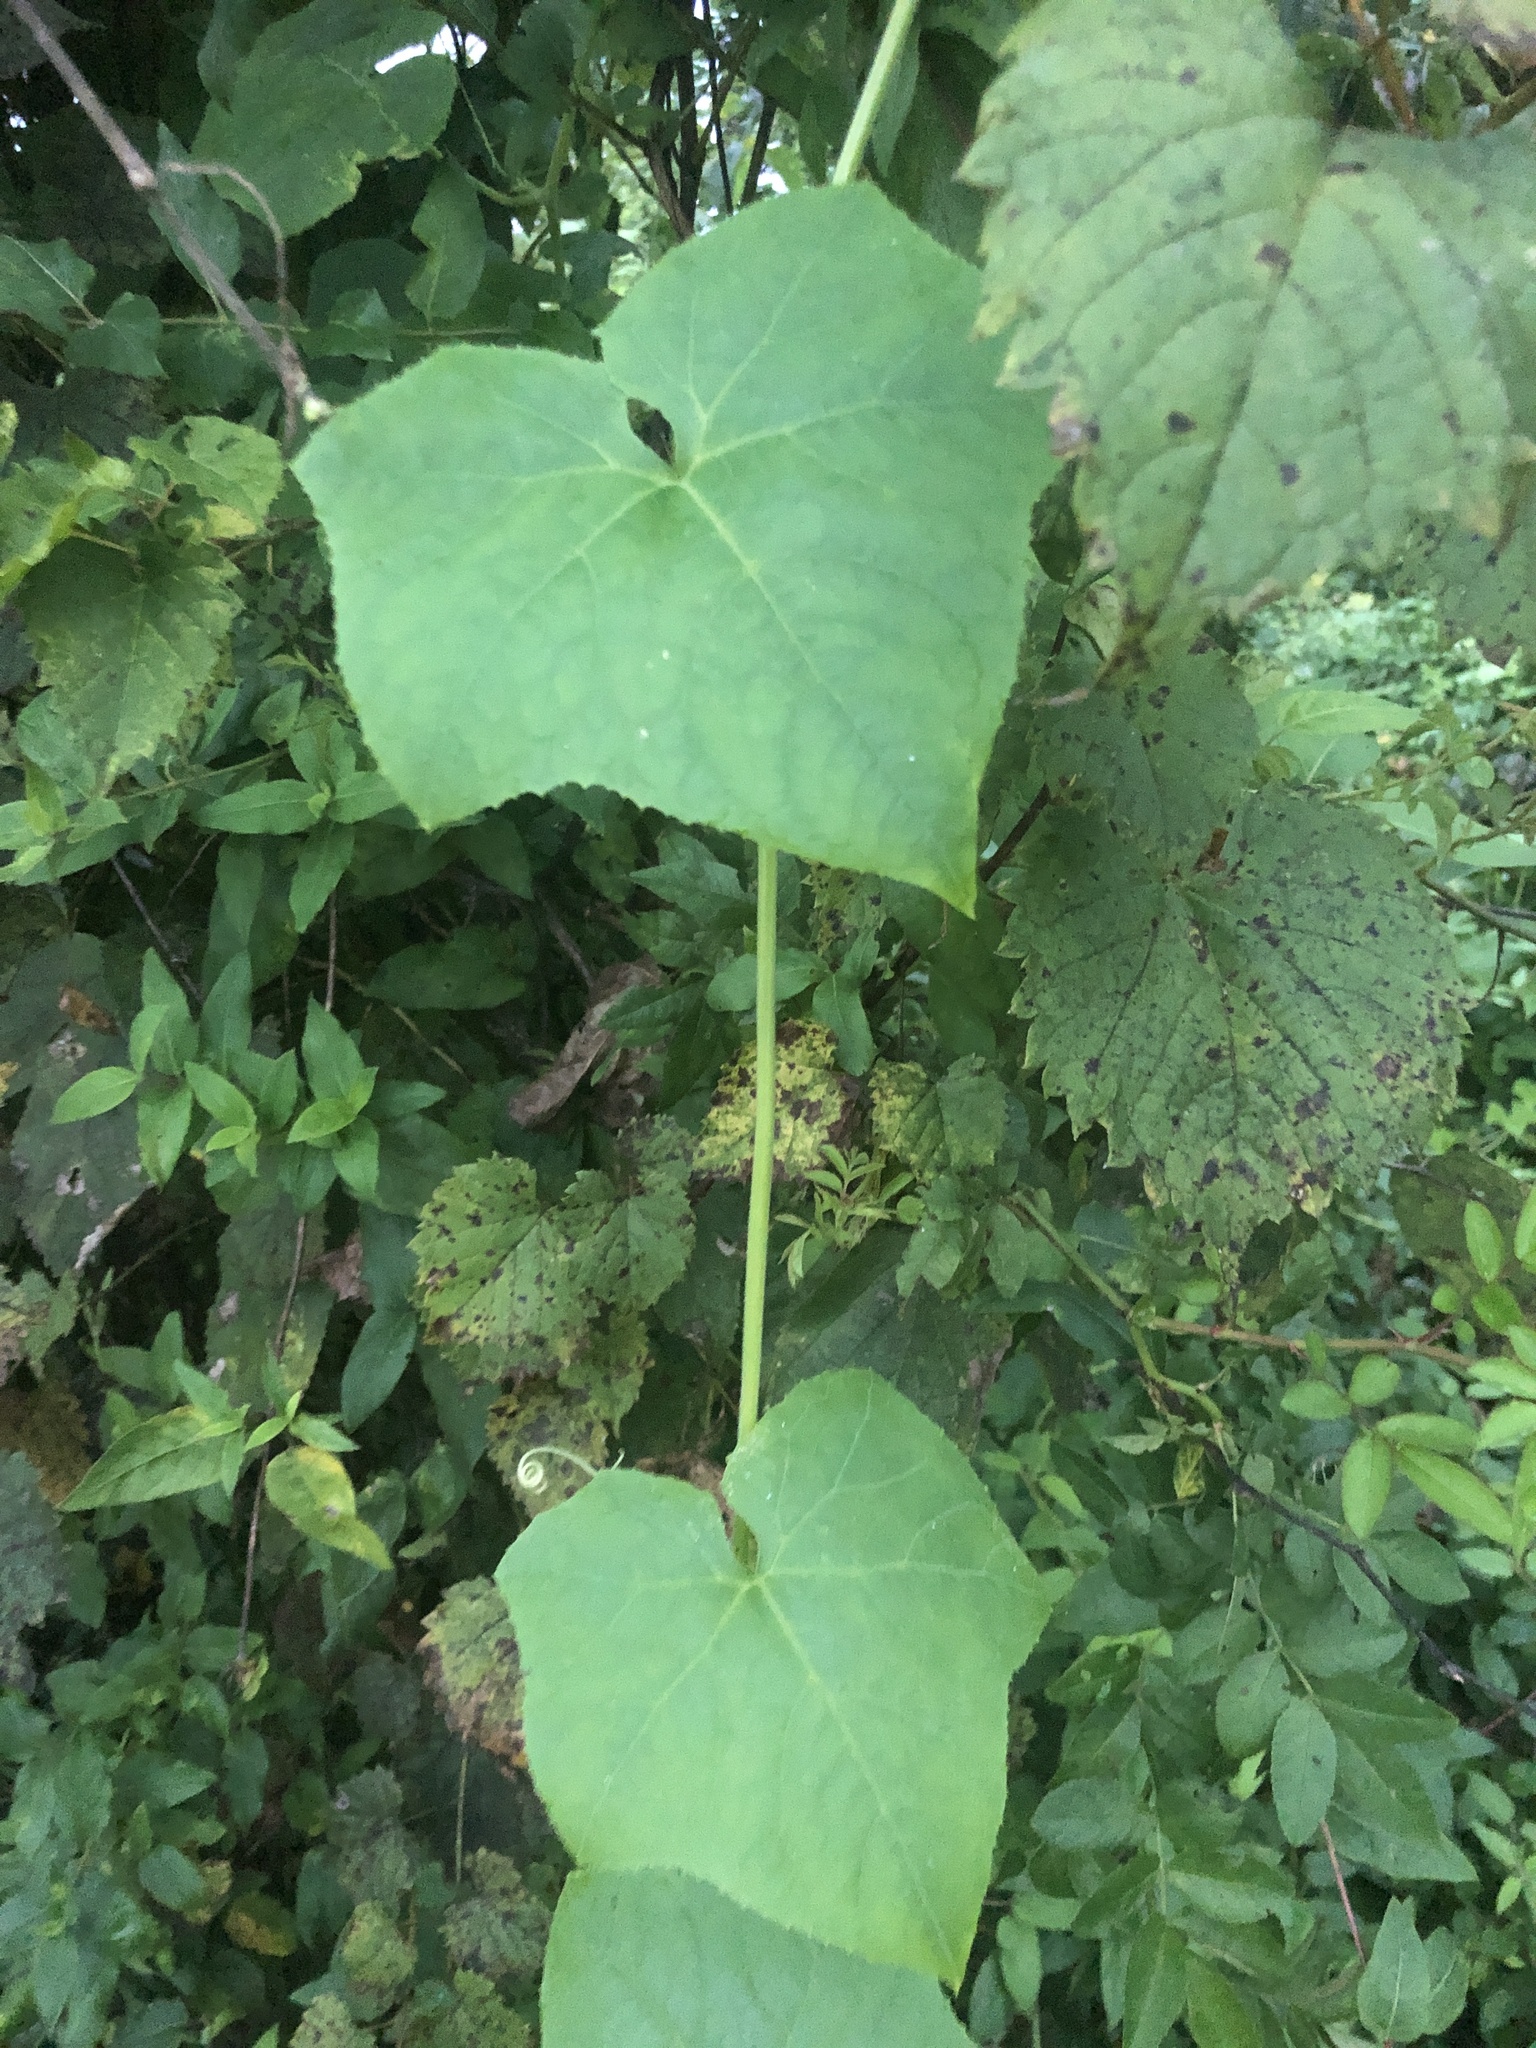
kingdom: Plantae
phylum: Tracheophyta
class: Magnoliopsida
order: Cucurbitales
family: Cucurbitaceae
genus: Sicyos
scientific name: Sicyos angulatus
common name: Angled burr cucumber
